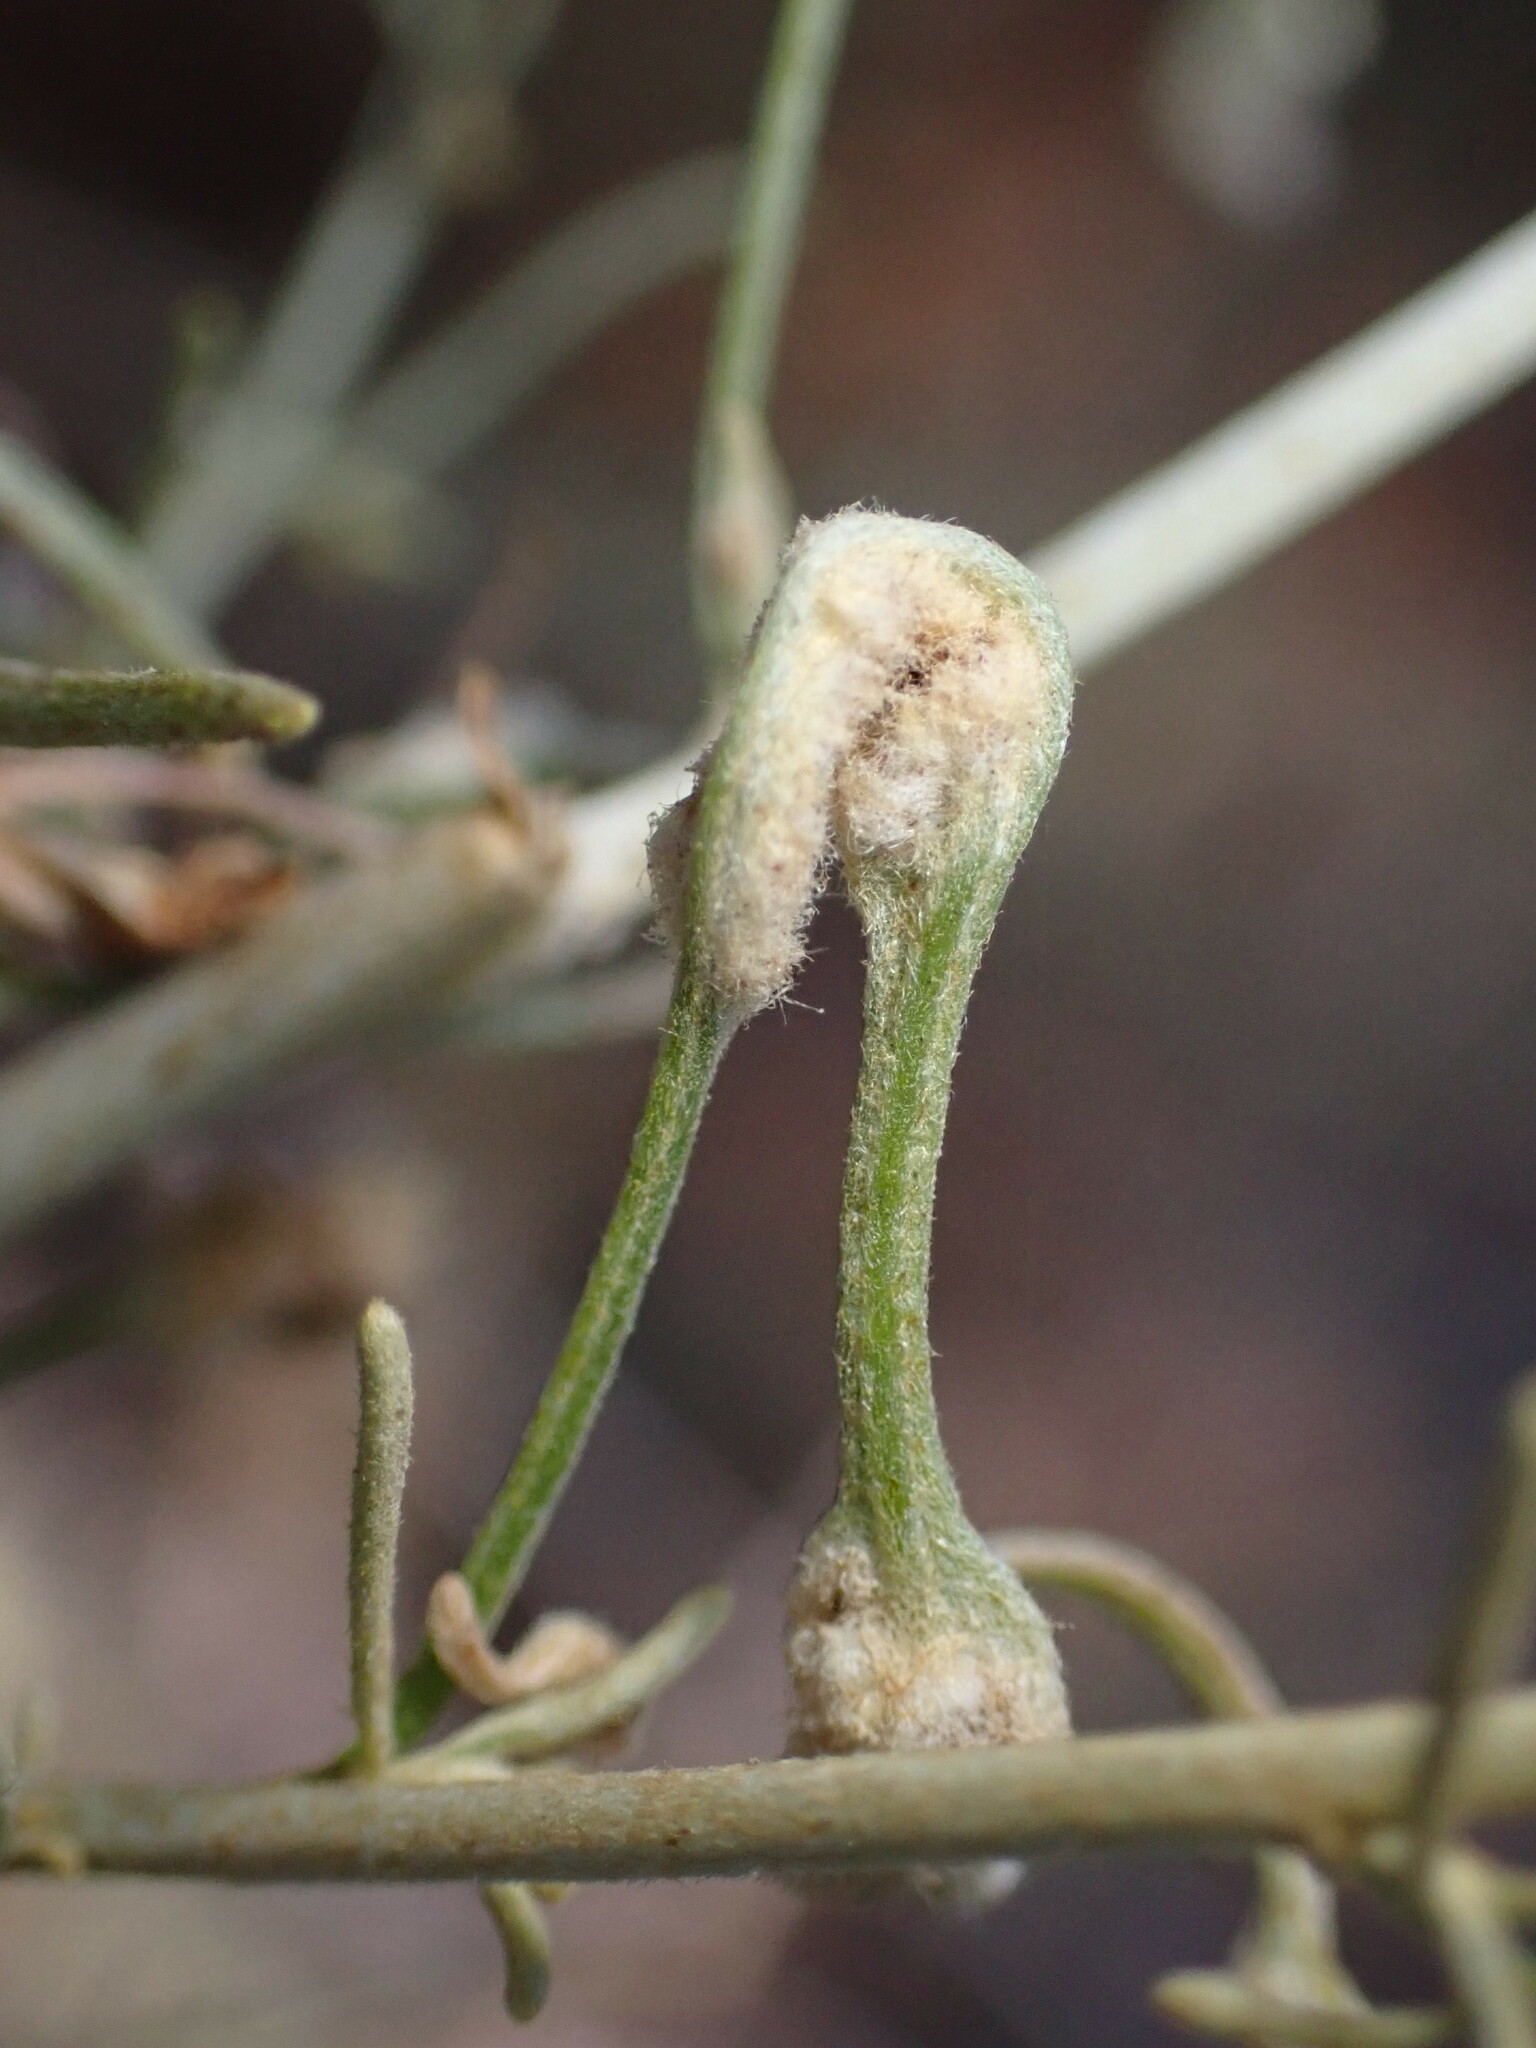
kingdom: Animalia
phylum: Arthropoda
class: Arachnida
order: Trombidiformes
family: Eriophyidae
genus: Aceria
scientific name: Aceria
